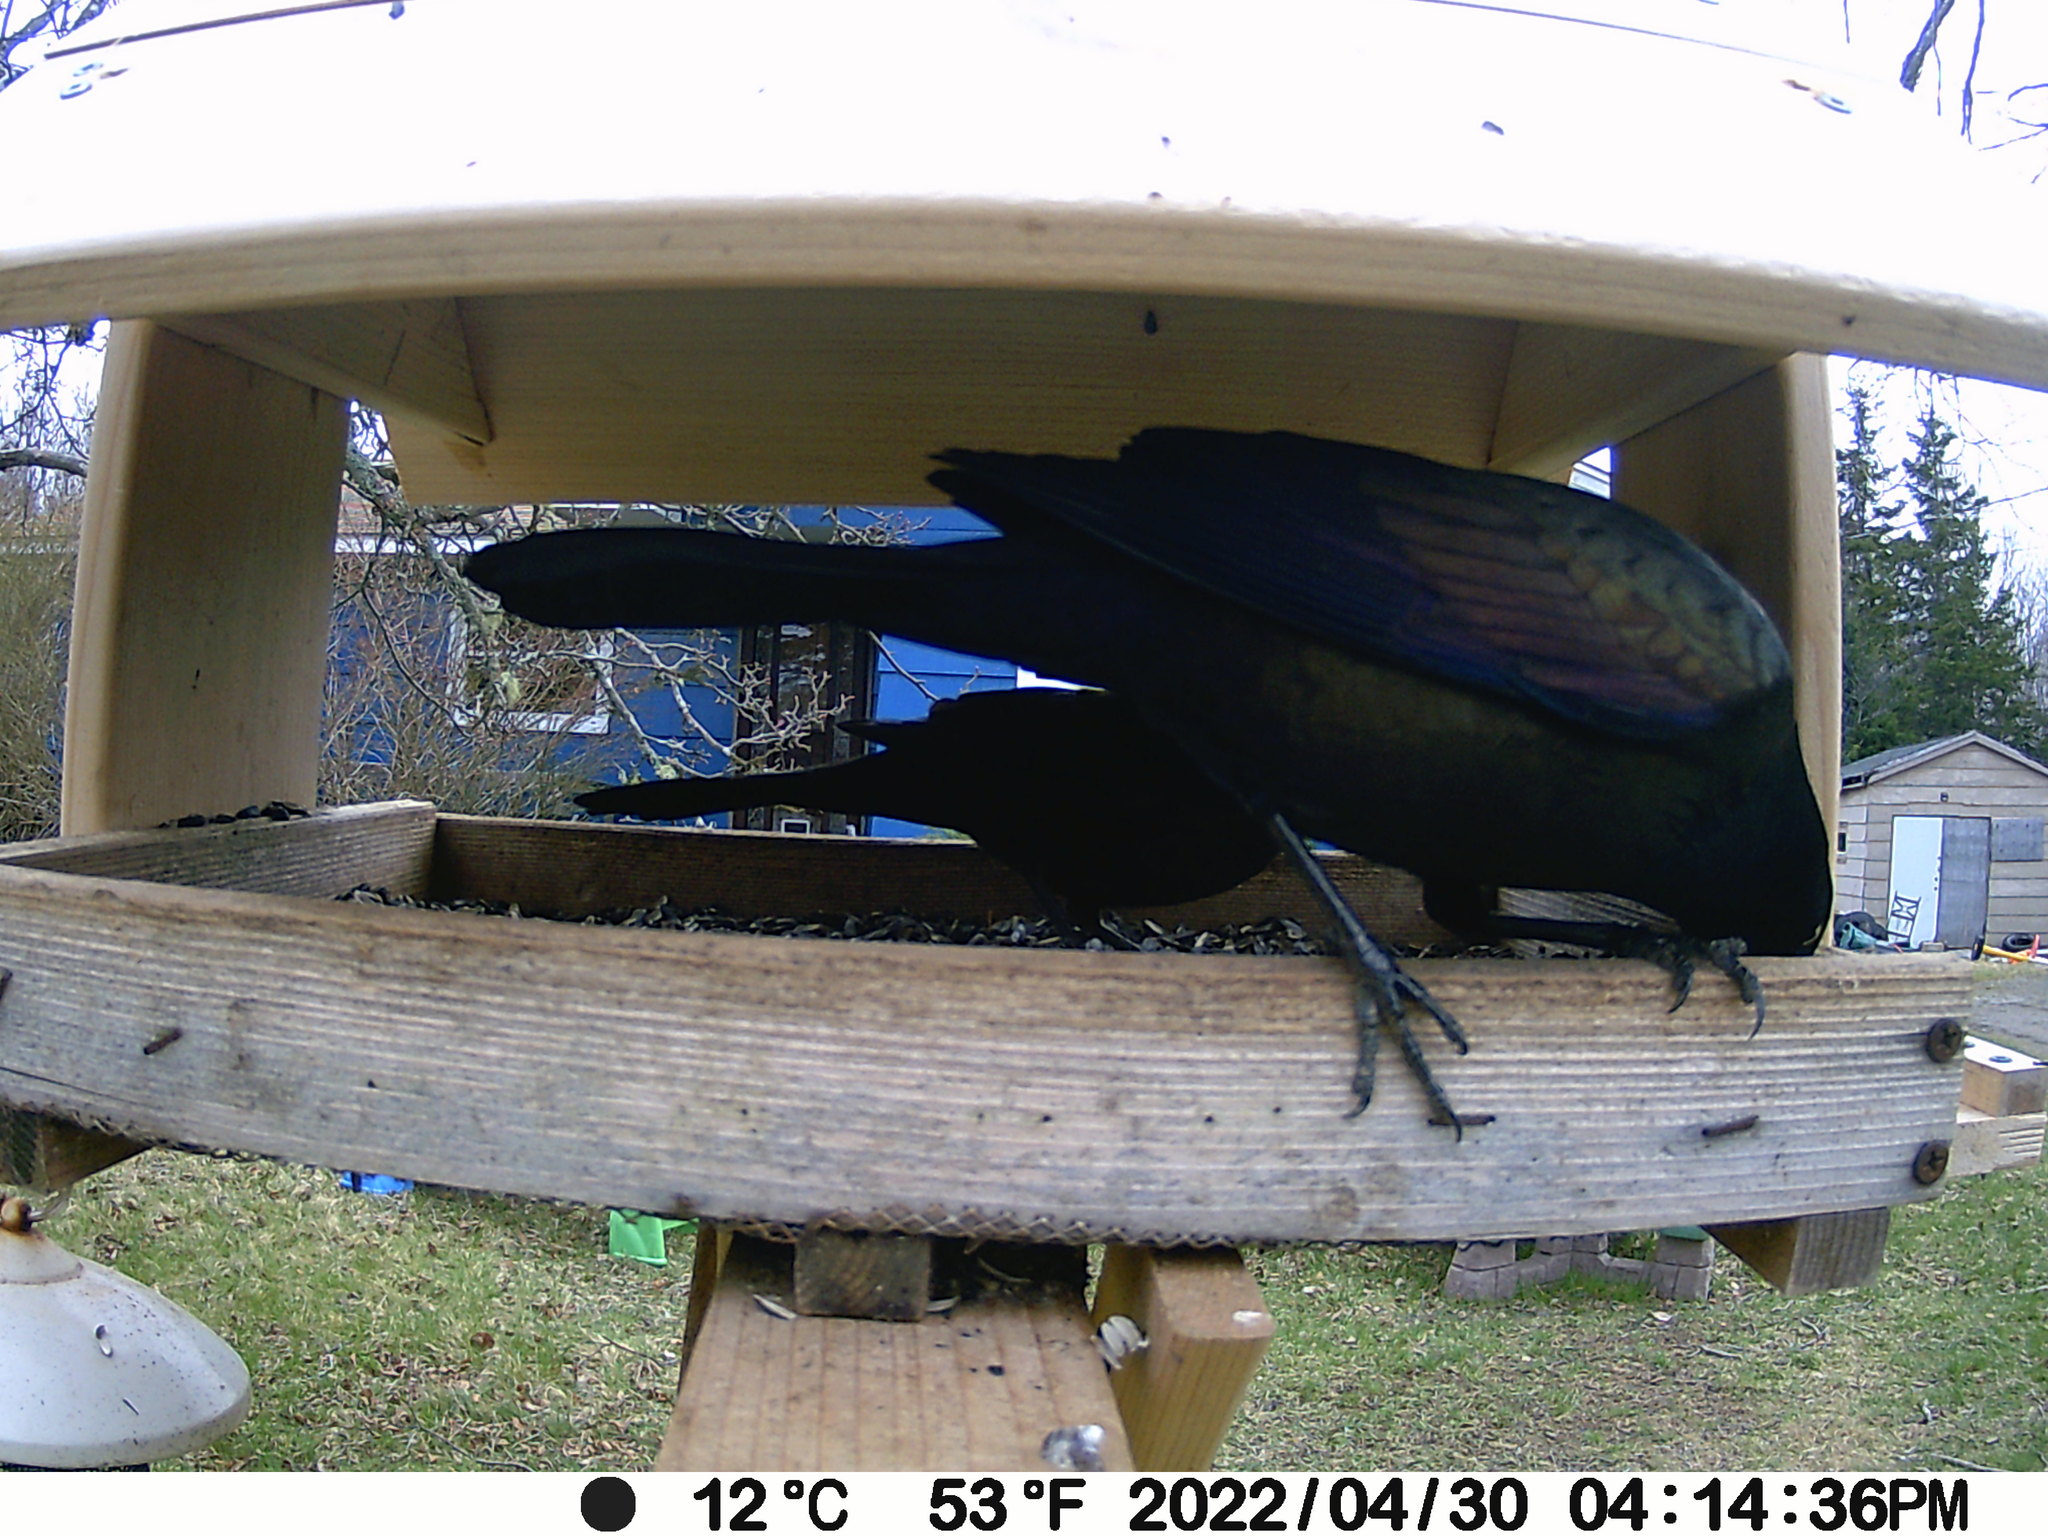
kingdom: Animalia
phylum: Chordata
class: Aves
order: Passeriformes
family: Icteridae
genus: Quiscalus
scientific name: Quiscalus quiscula
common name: Common grackle
